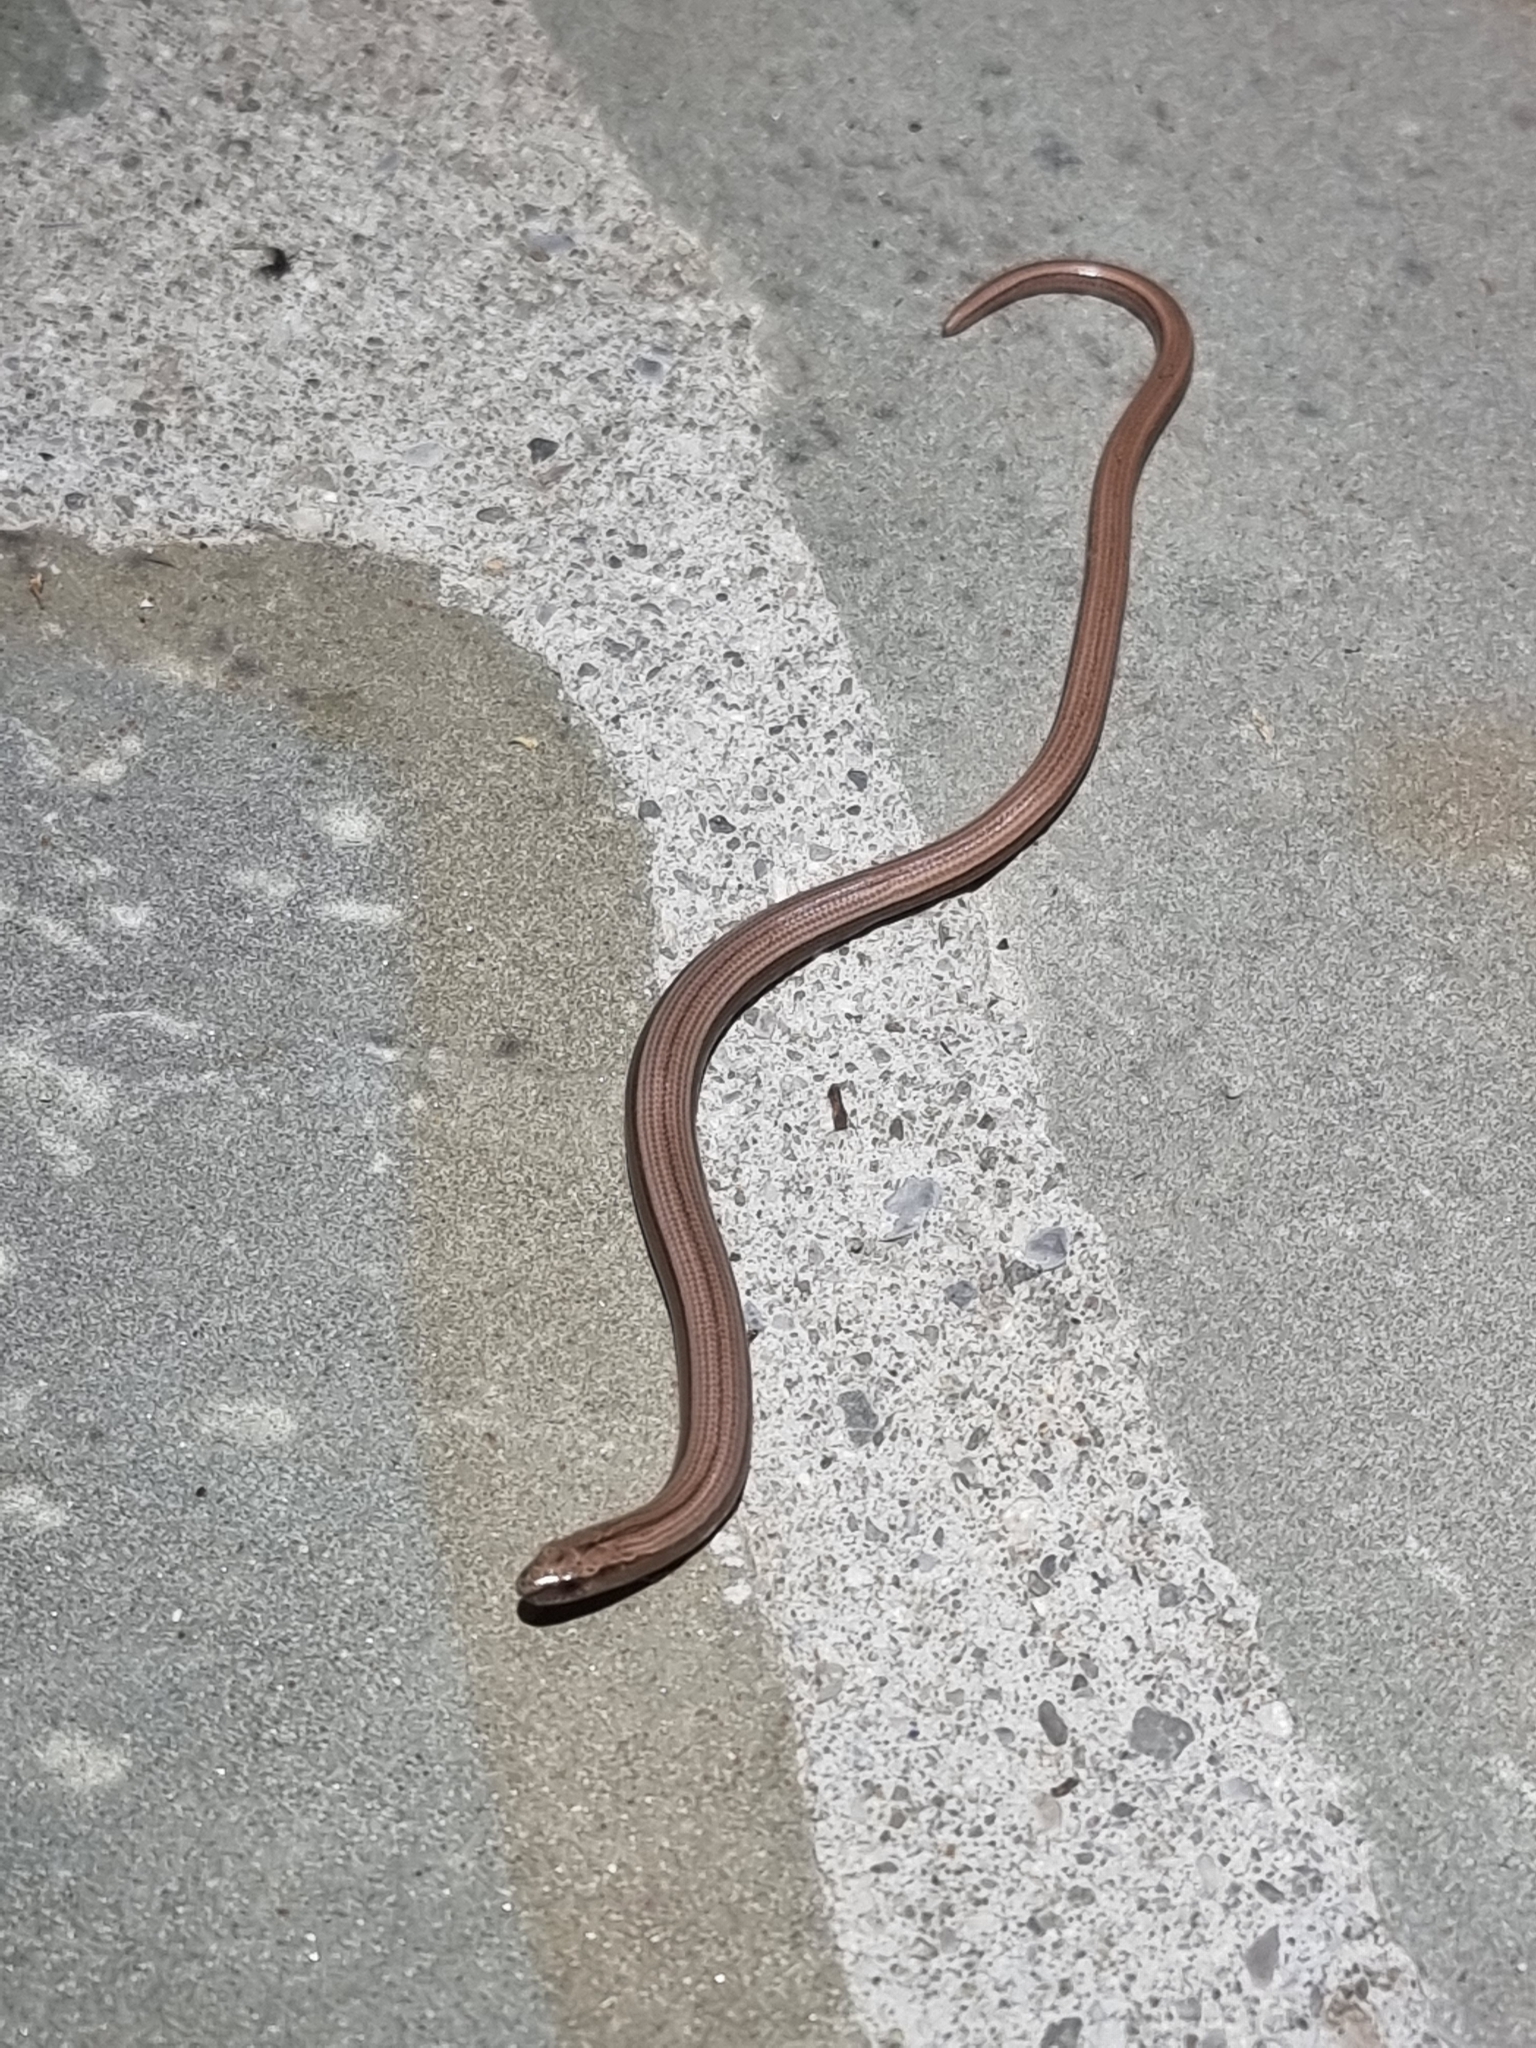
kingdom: Animalia
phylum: Chordata
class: Squamata
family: Anguidae
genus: Anguis
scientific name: Anguis veronensis
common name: Italian slow worm
